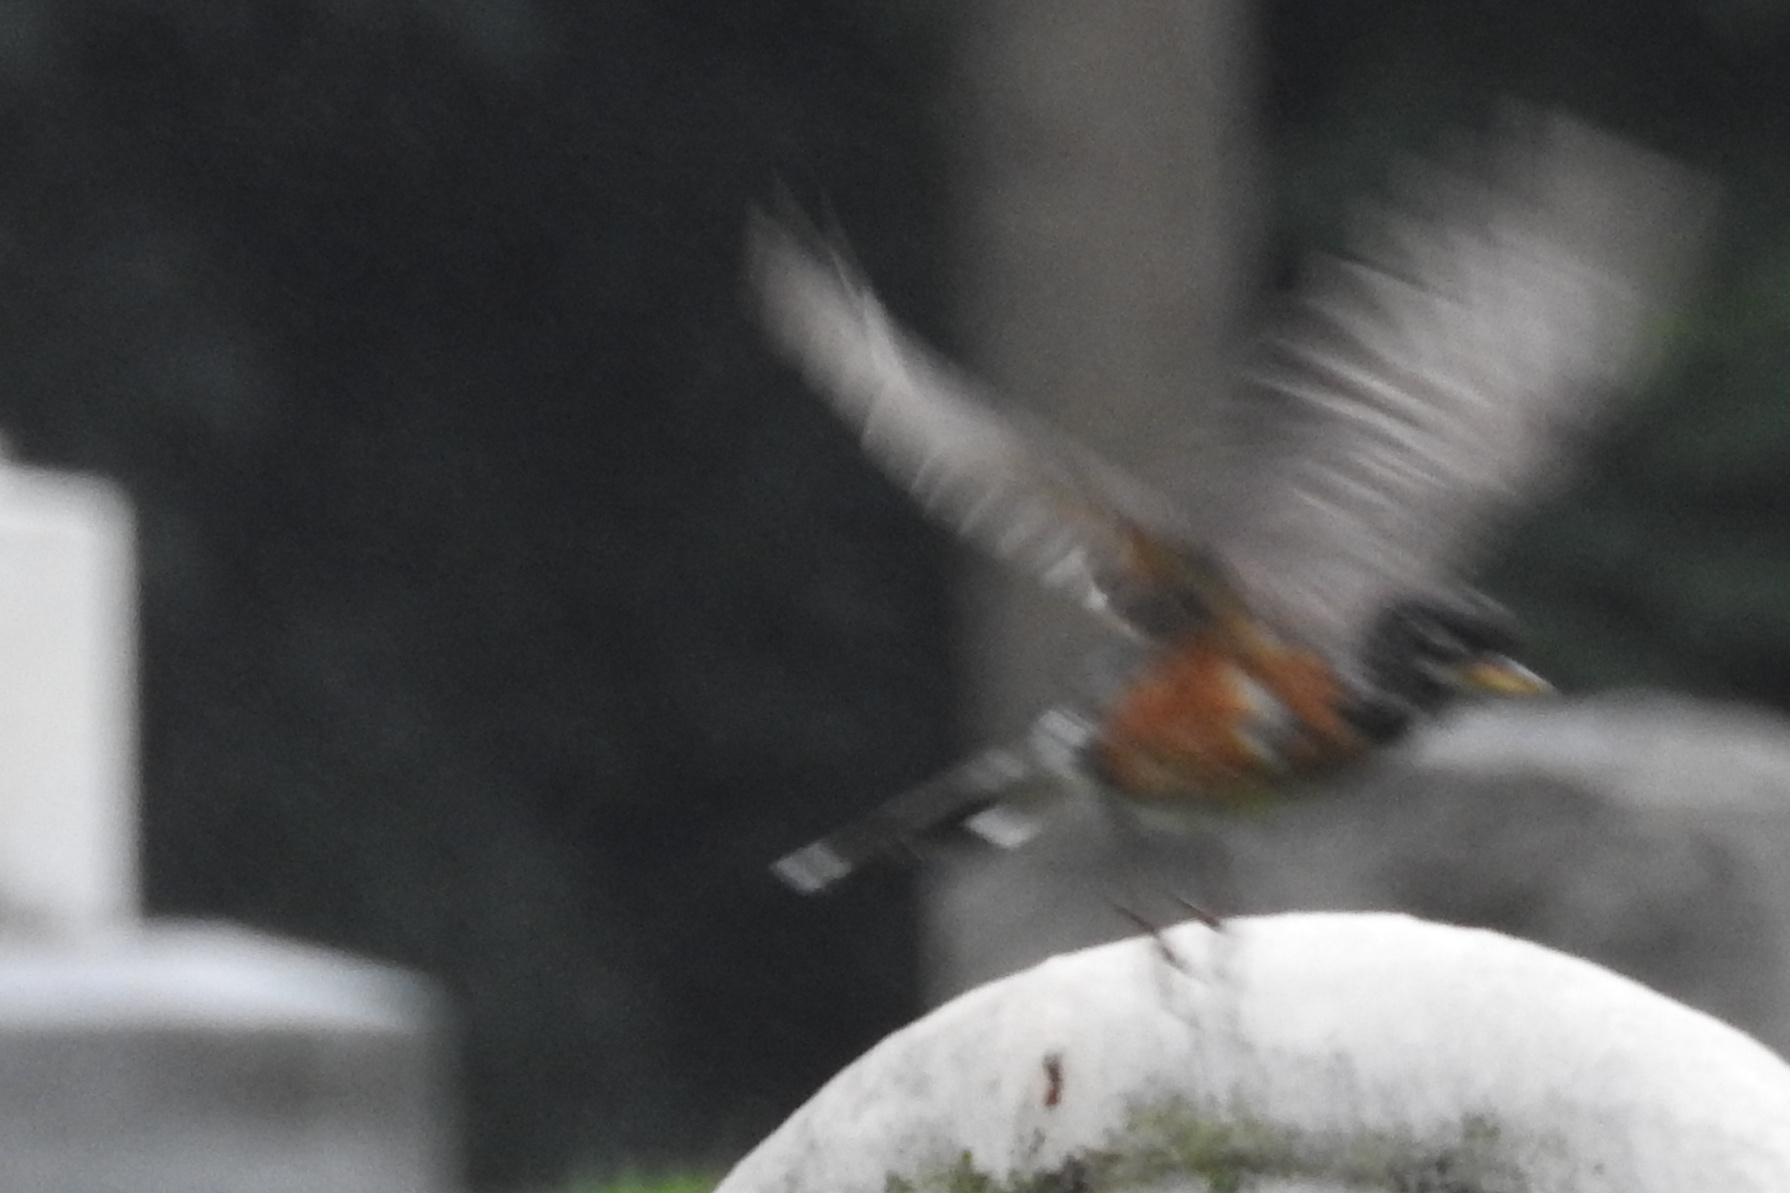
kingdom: Animalia
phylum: Chordata
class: Aves
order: Passeriformes
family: Turdidae
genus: Turdus
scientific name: Turdus migratorius
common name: American robin
